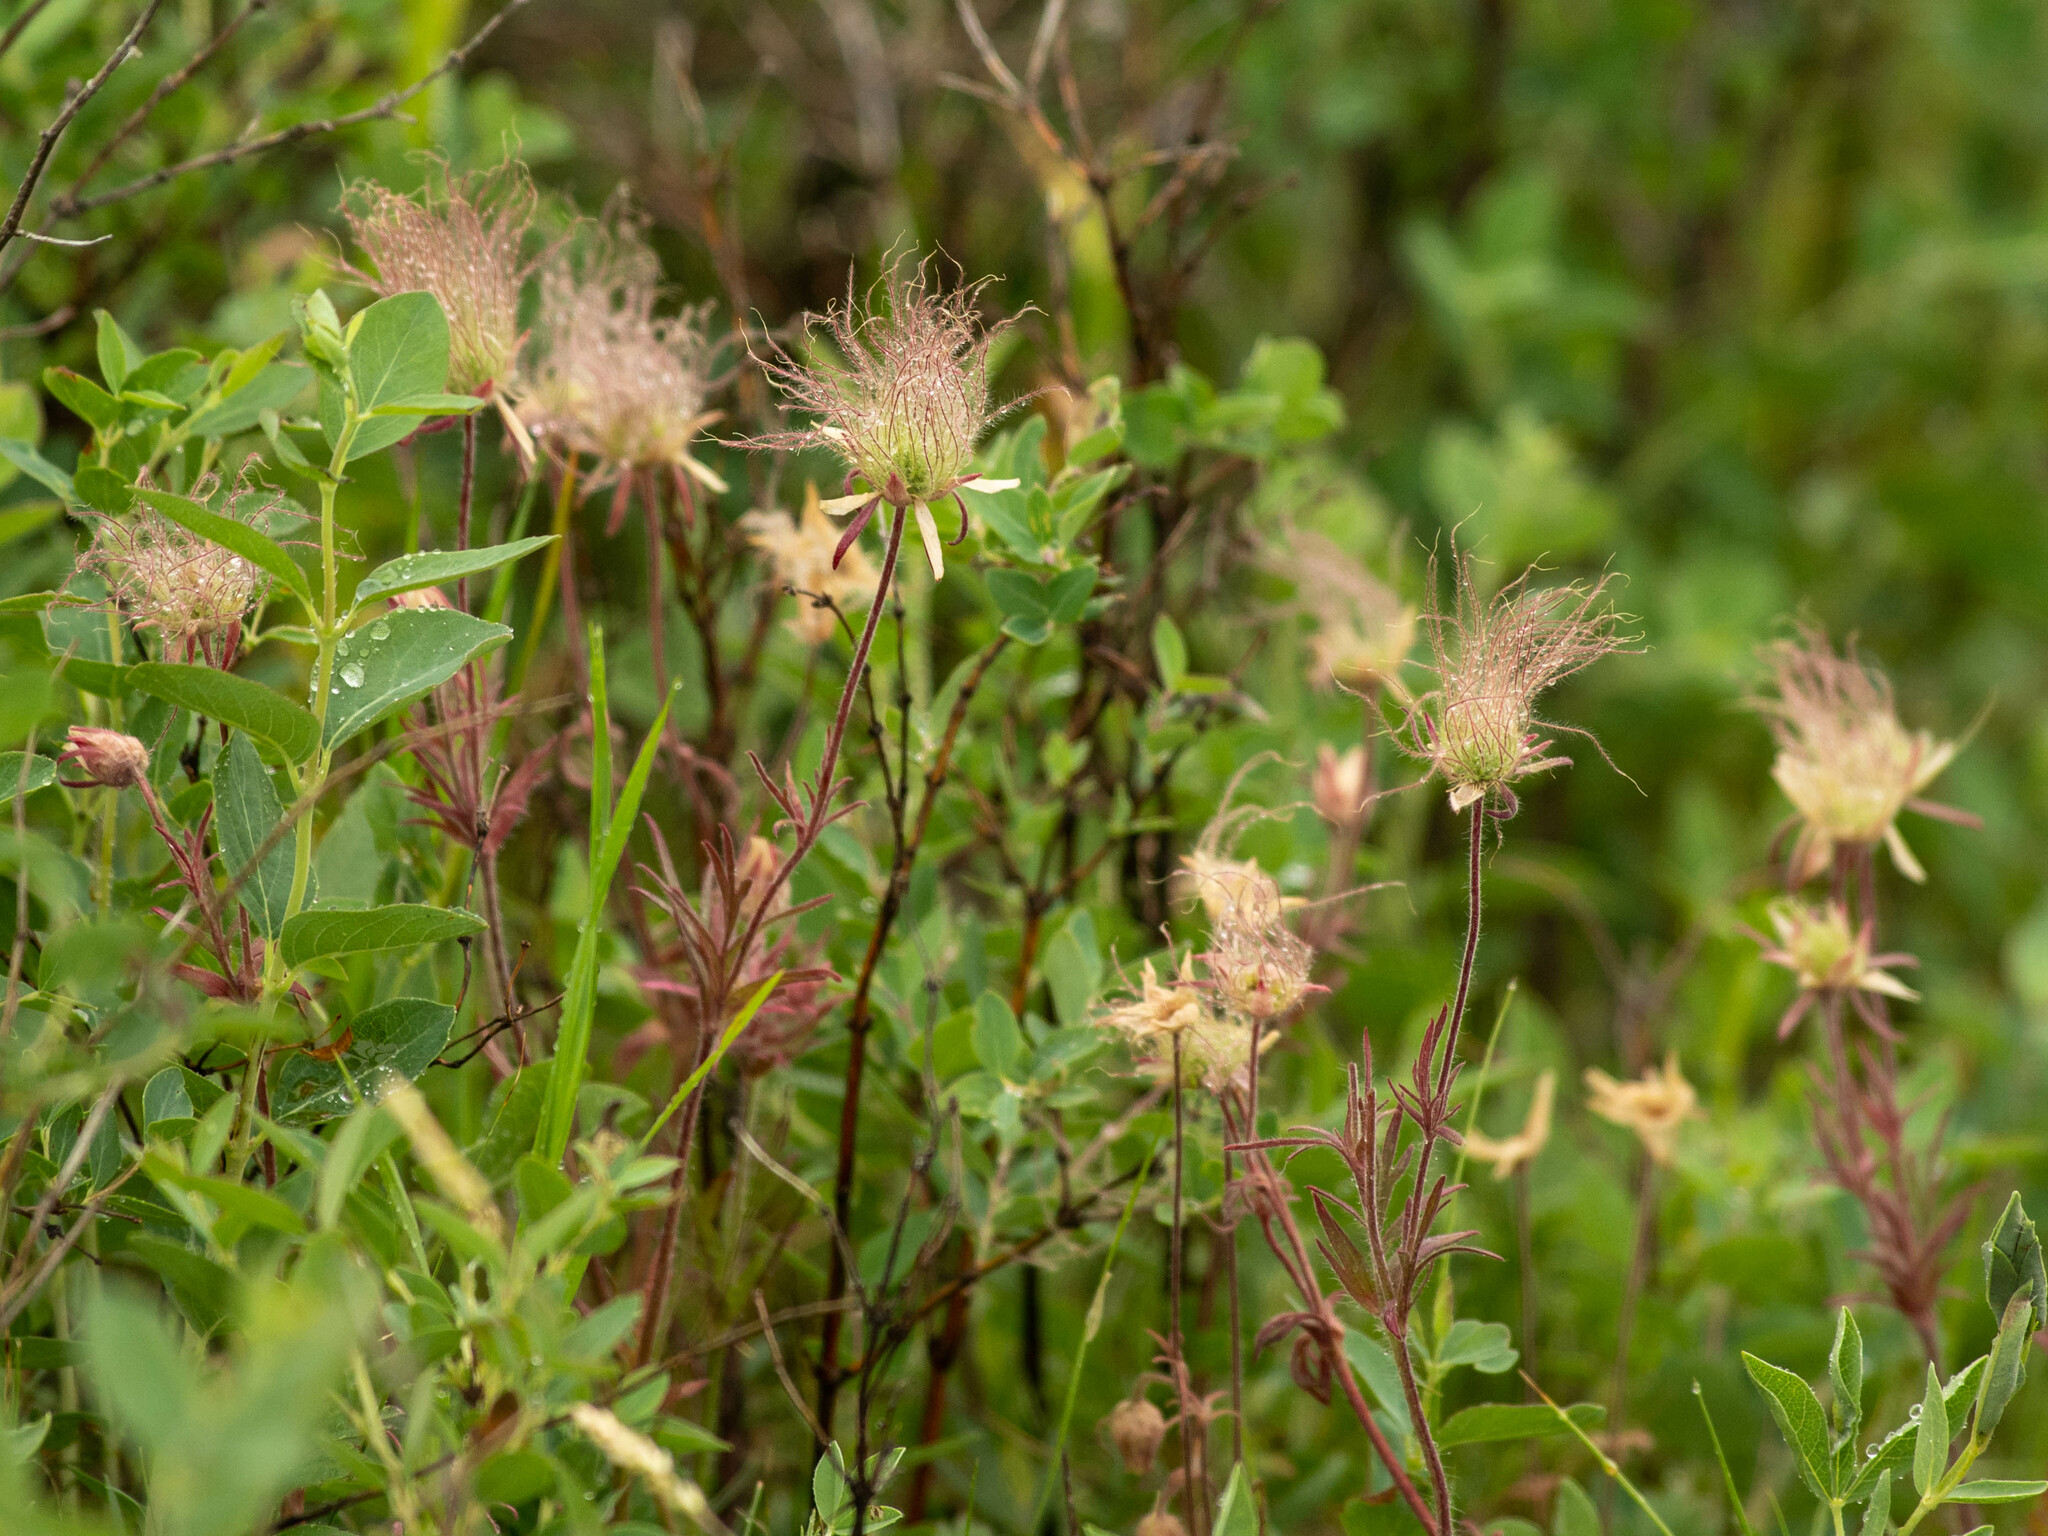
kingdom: Plantae
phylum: Tracheophyta
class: Magnoliopsida
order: Rosales
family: Rosaceae
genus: Geum
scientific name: Geum triflorum
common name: Old man's whiskers
